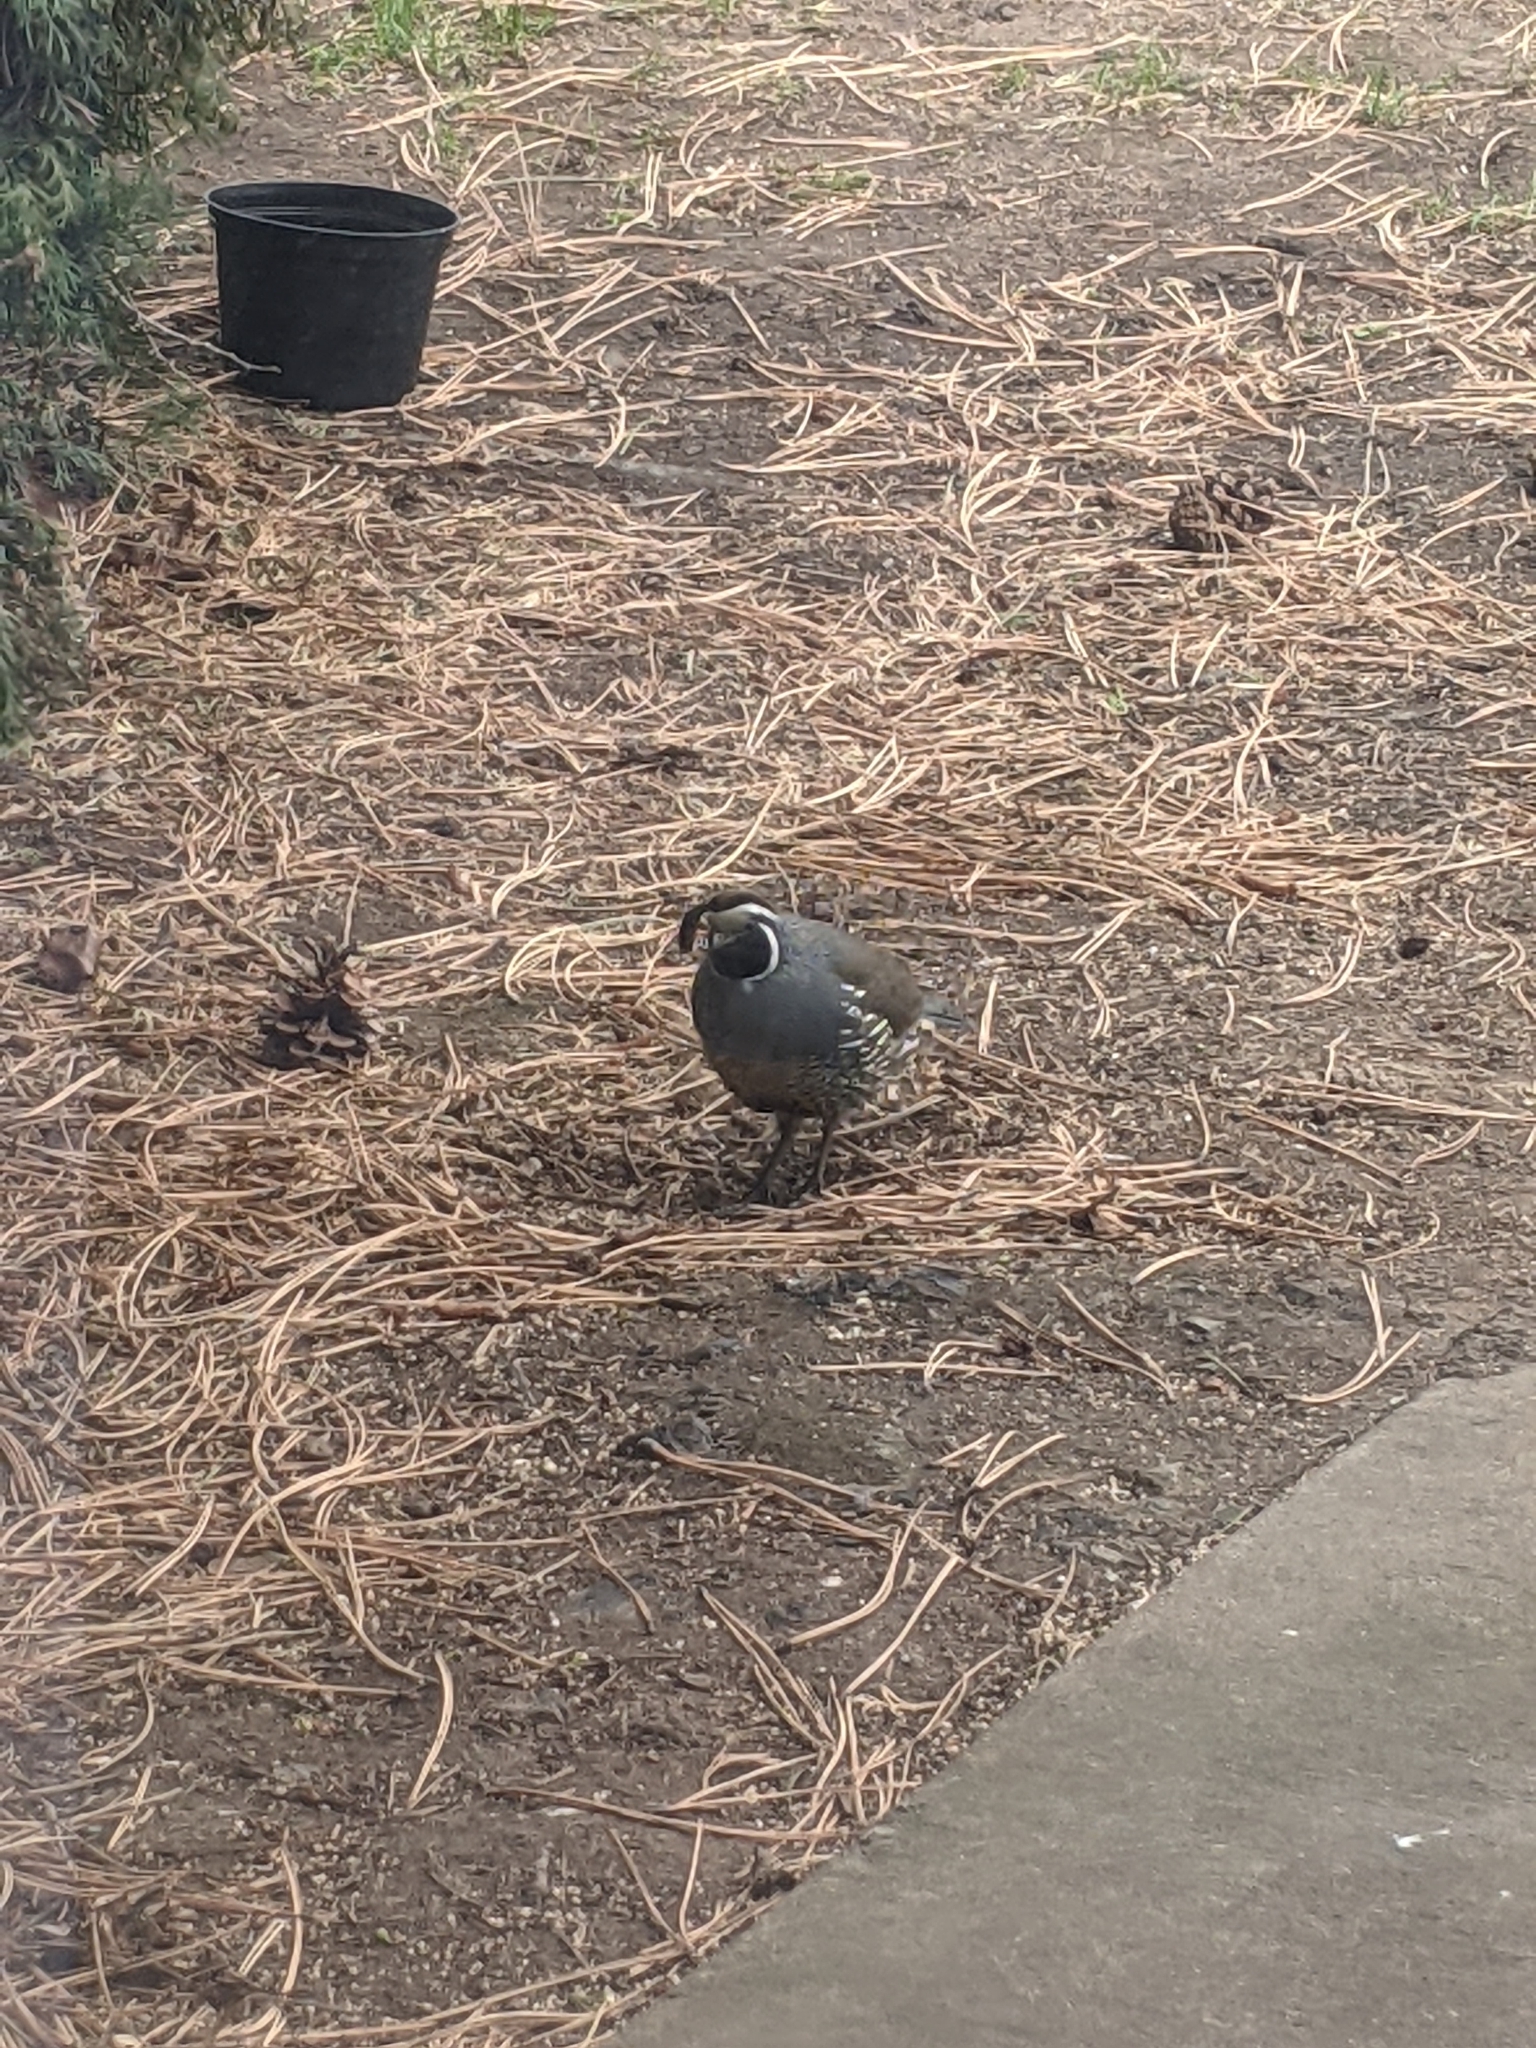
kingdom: Animalia
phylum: Chordata
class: Aves
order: Galliformes
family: Odontophoridae
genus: Callipepla
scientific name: Callipepla californica
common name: California quail
